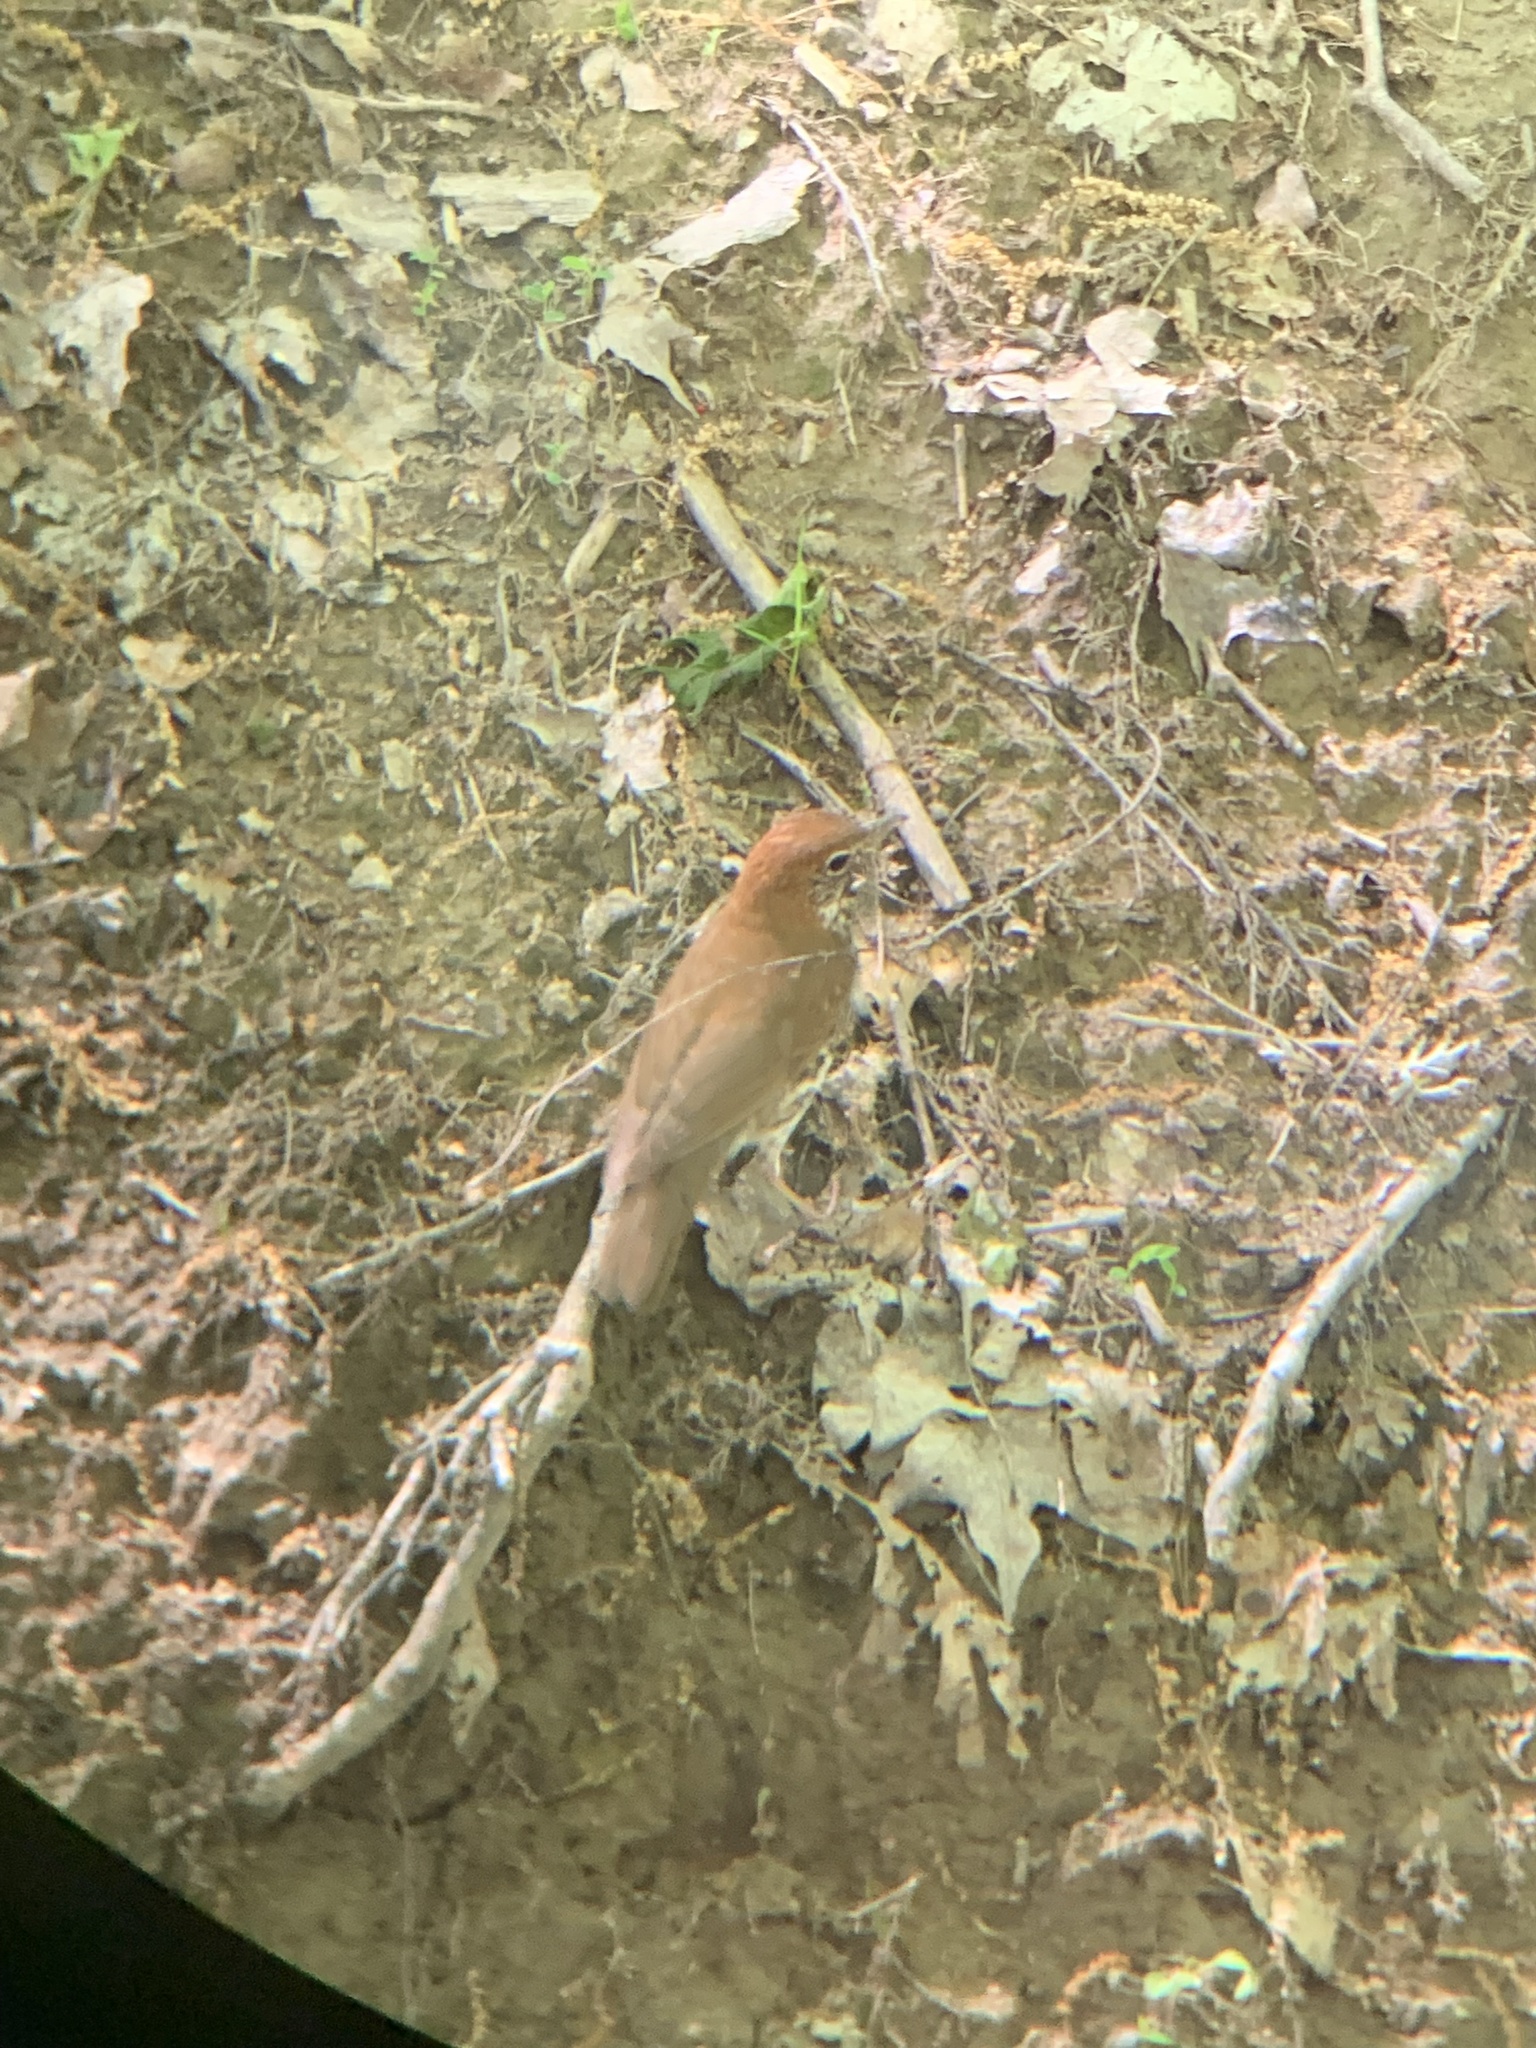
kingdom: Animalia
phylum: Chordata
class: Aves
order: Passeriformes
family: Turdidae
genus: Hylocichla
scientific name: Hylocichla mustelina
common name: Wood thrush
